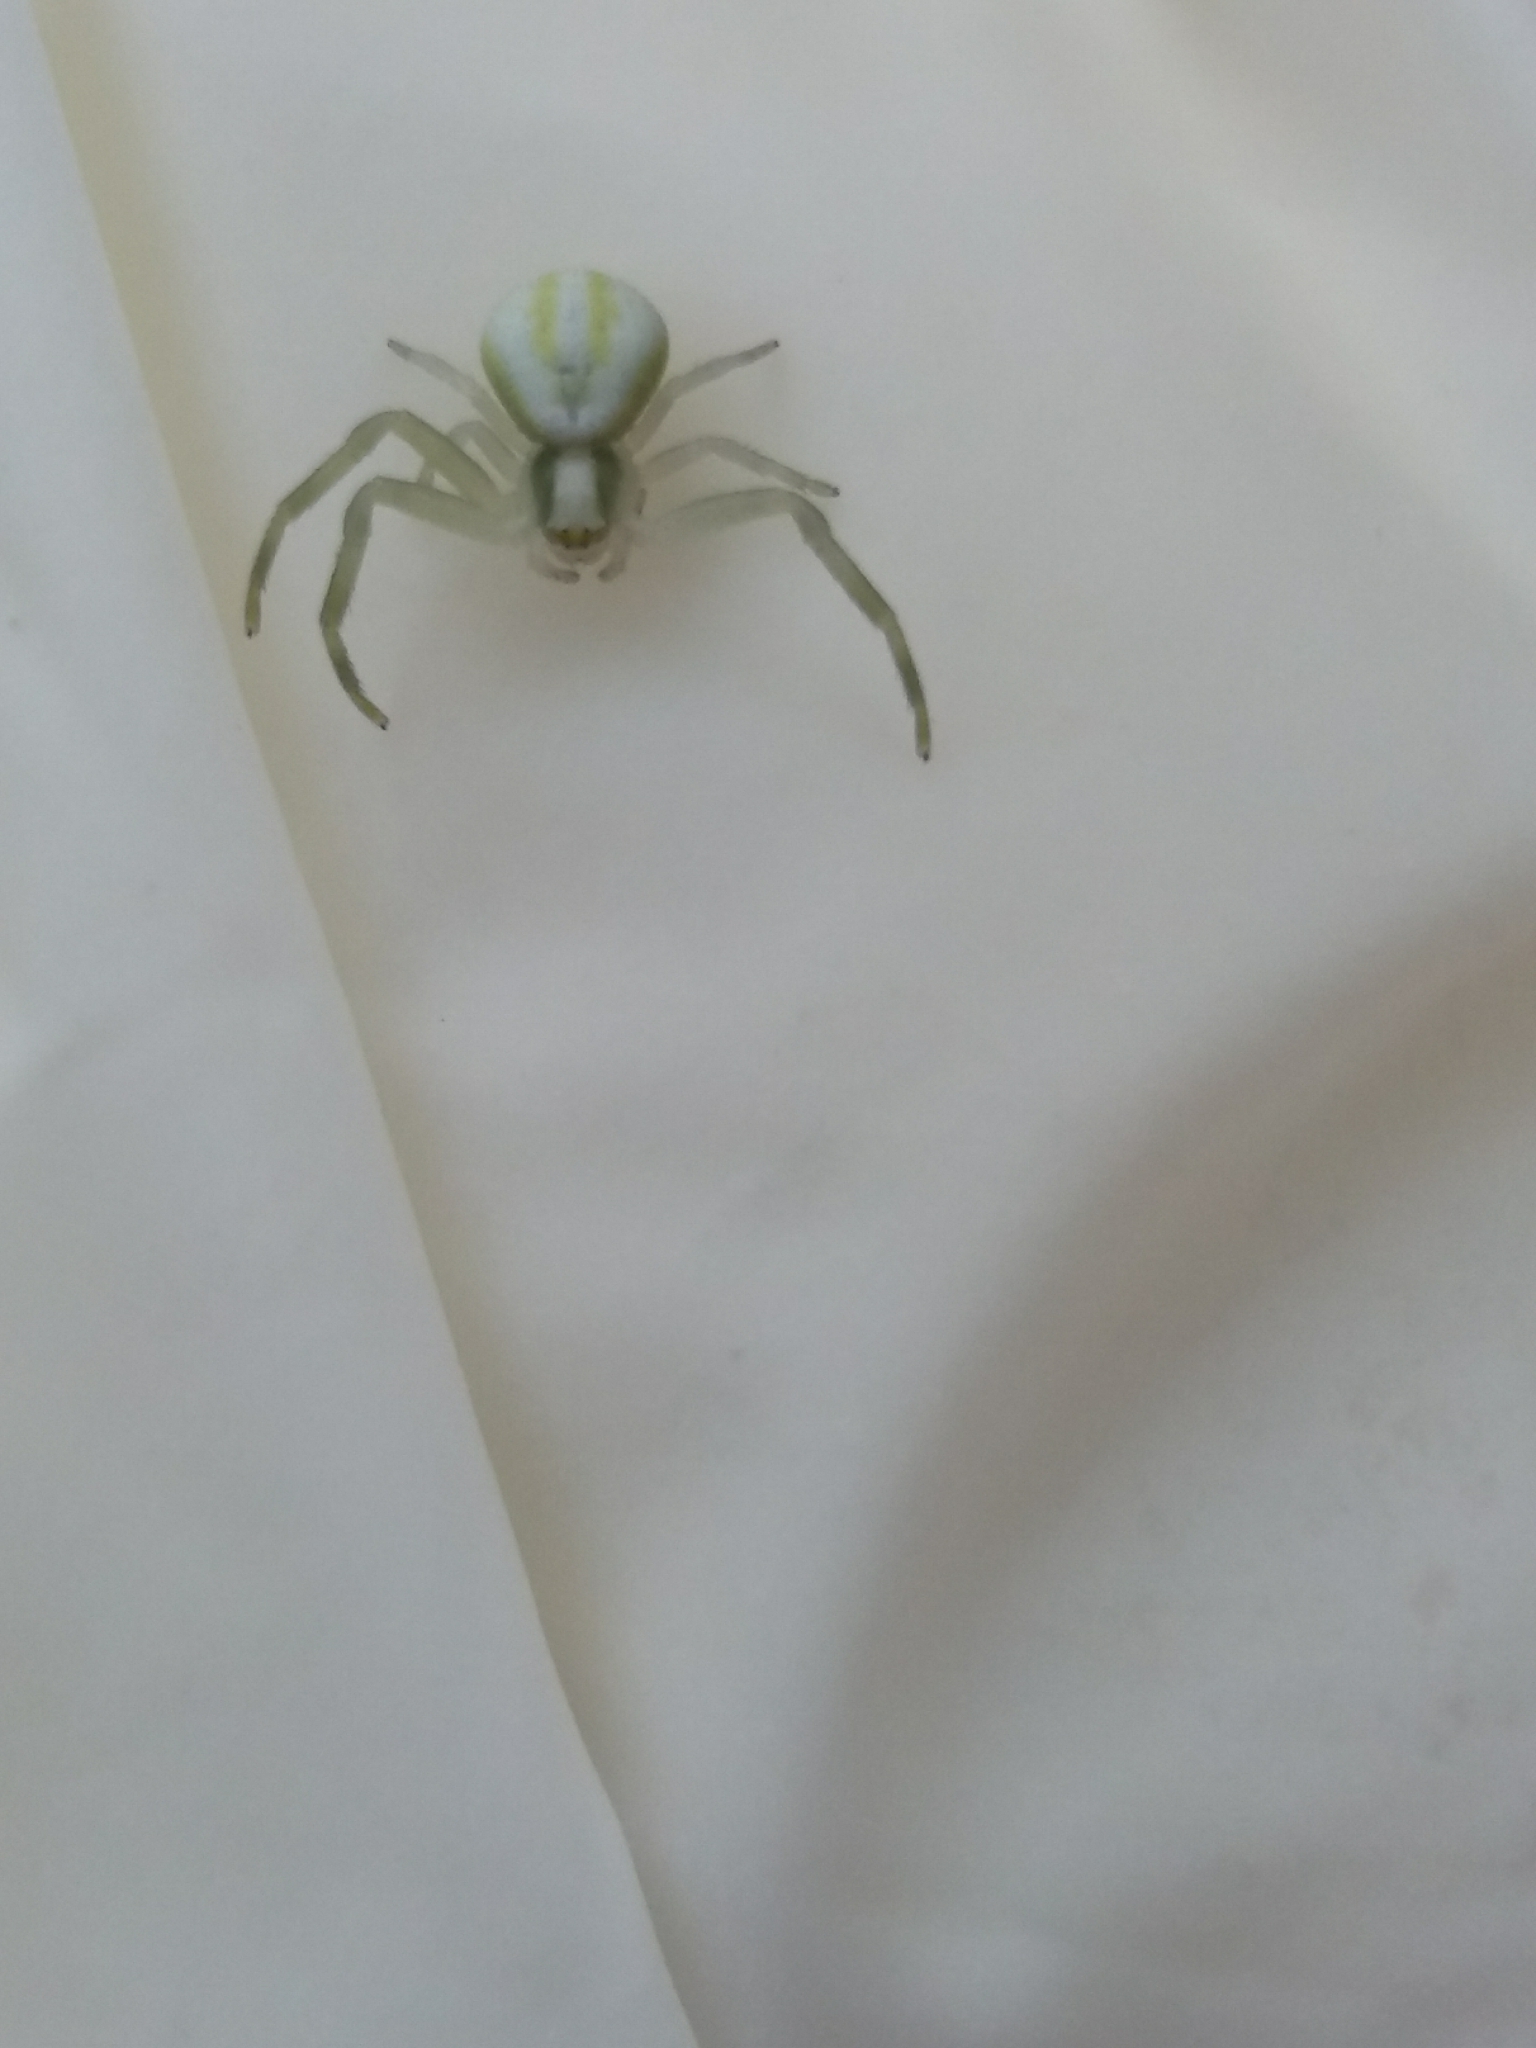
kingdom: Animalia
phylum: Arthropoda
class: Arachnida
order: Araneae
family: Thomisidae
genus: Misumena
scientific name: Misumena vatia
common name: Goldenrod crab spider
